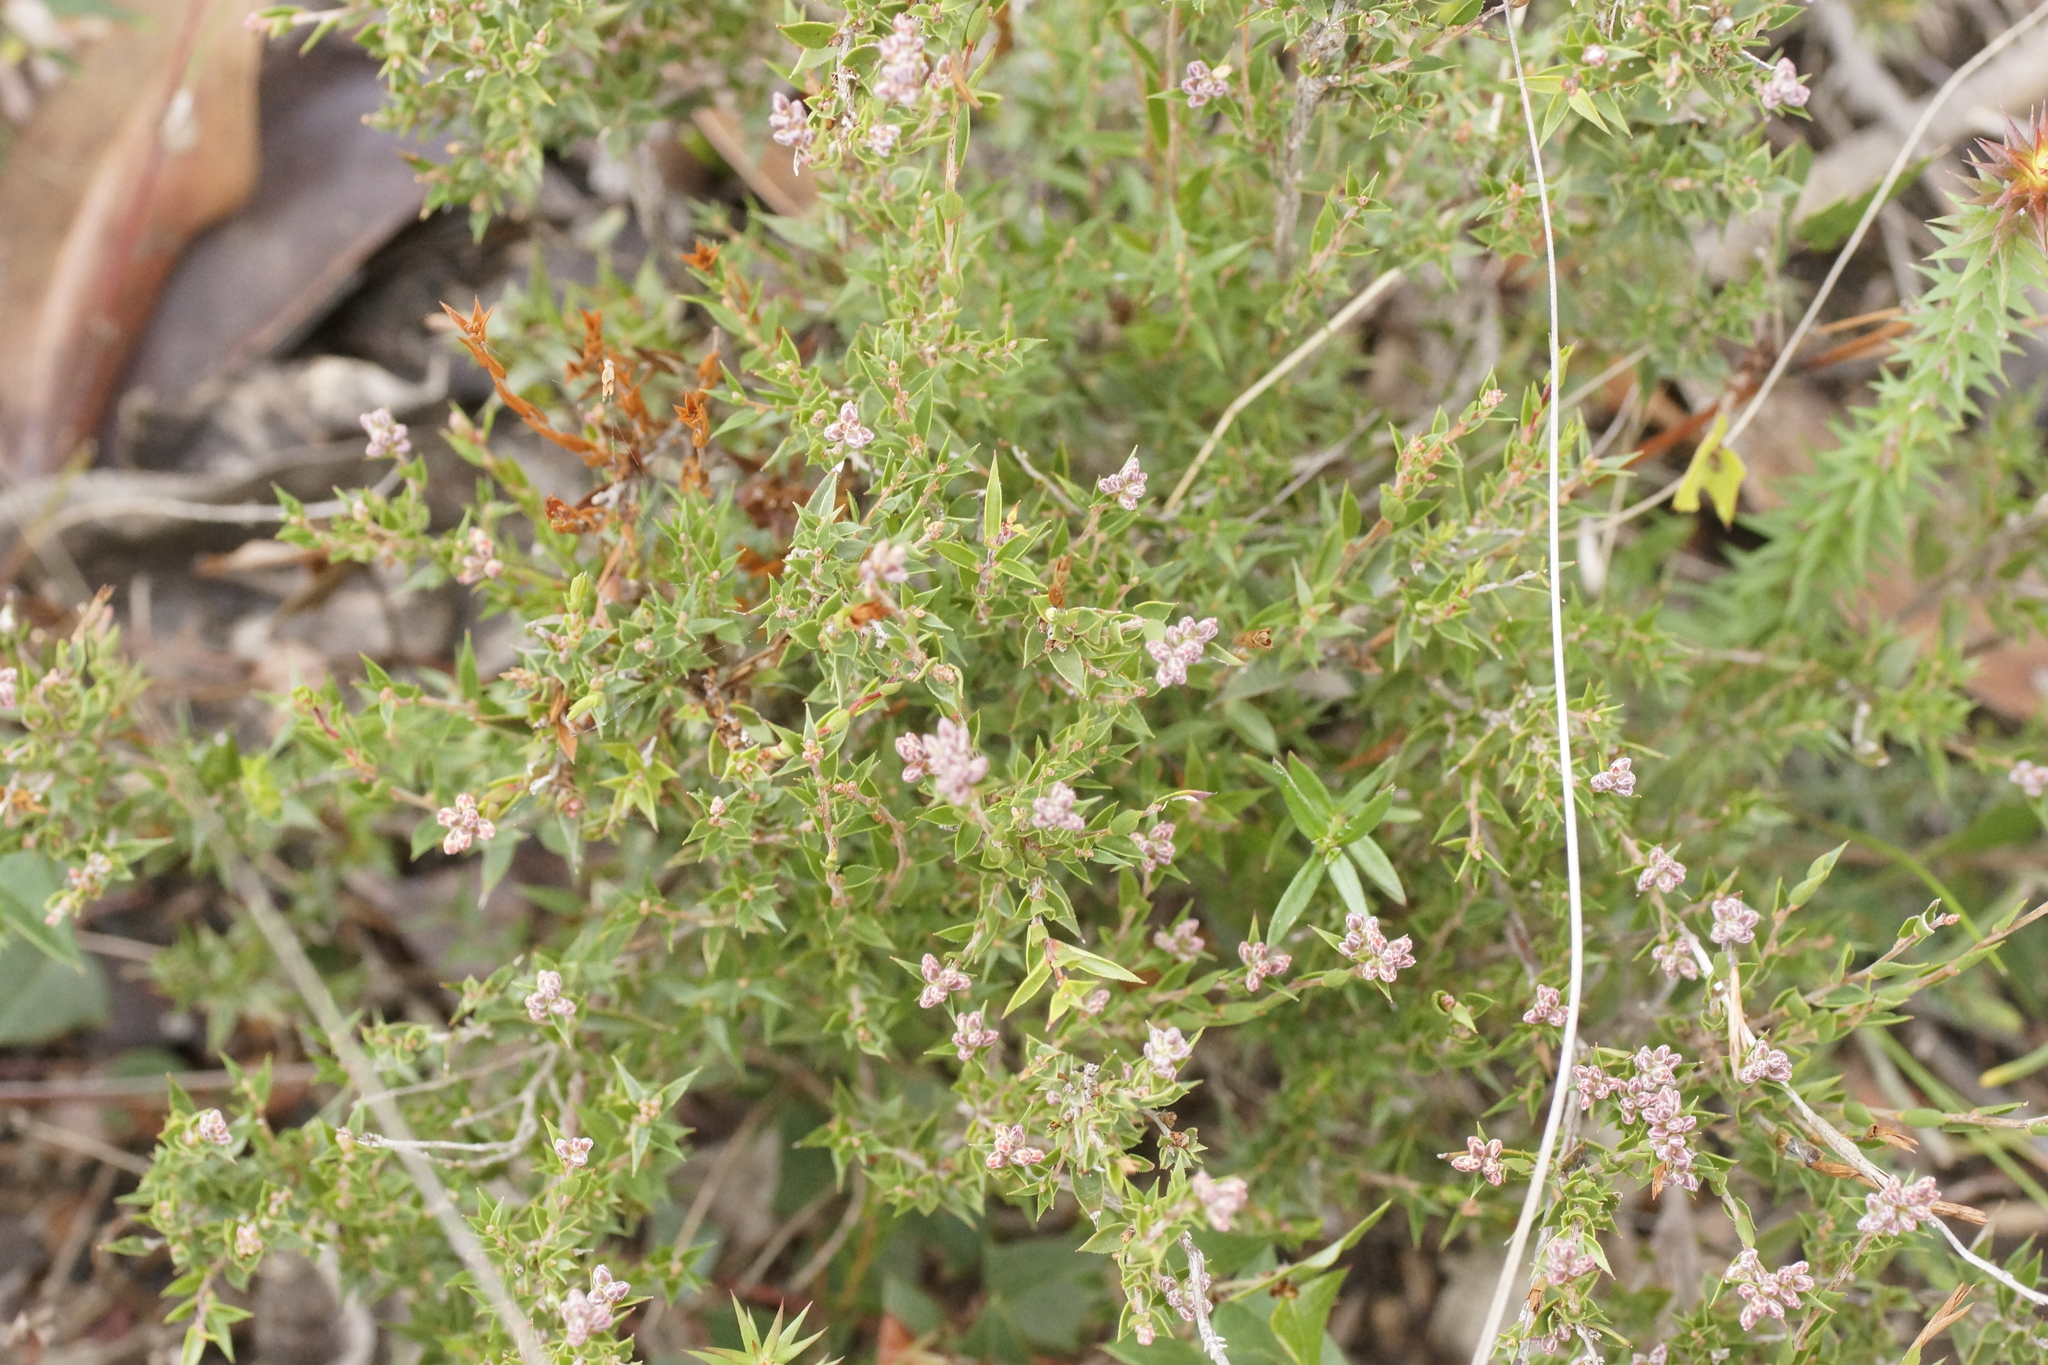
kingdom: Plantae
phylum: Tracheophyta
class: Magnoliopsida
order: Ericales
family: Ericaceae
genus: Leucopogon
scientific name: Leucopogon virgatus
